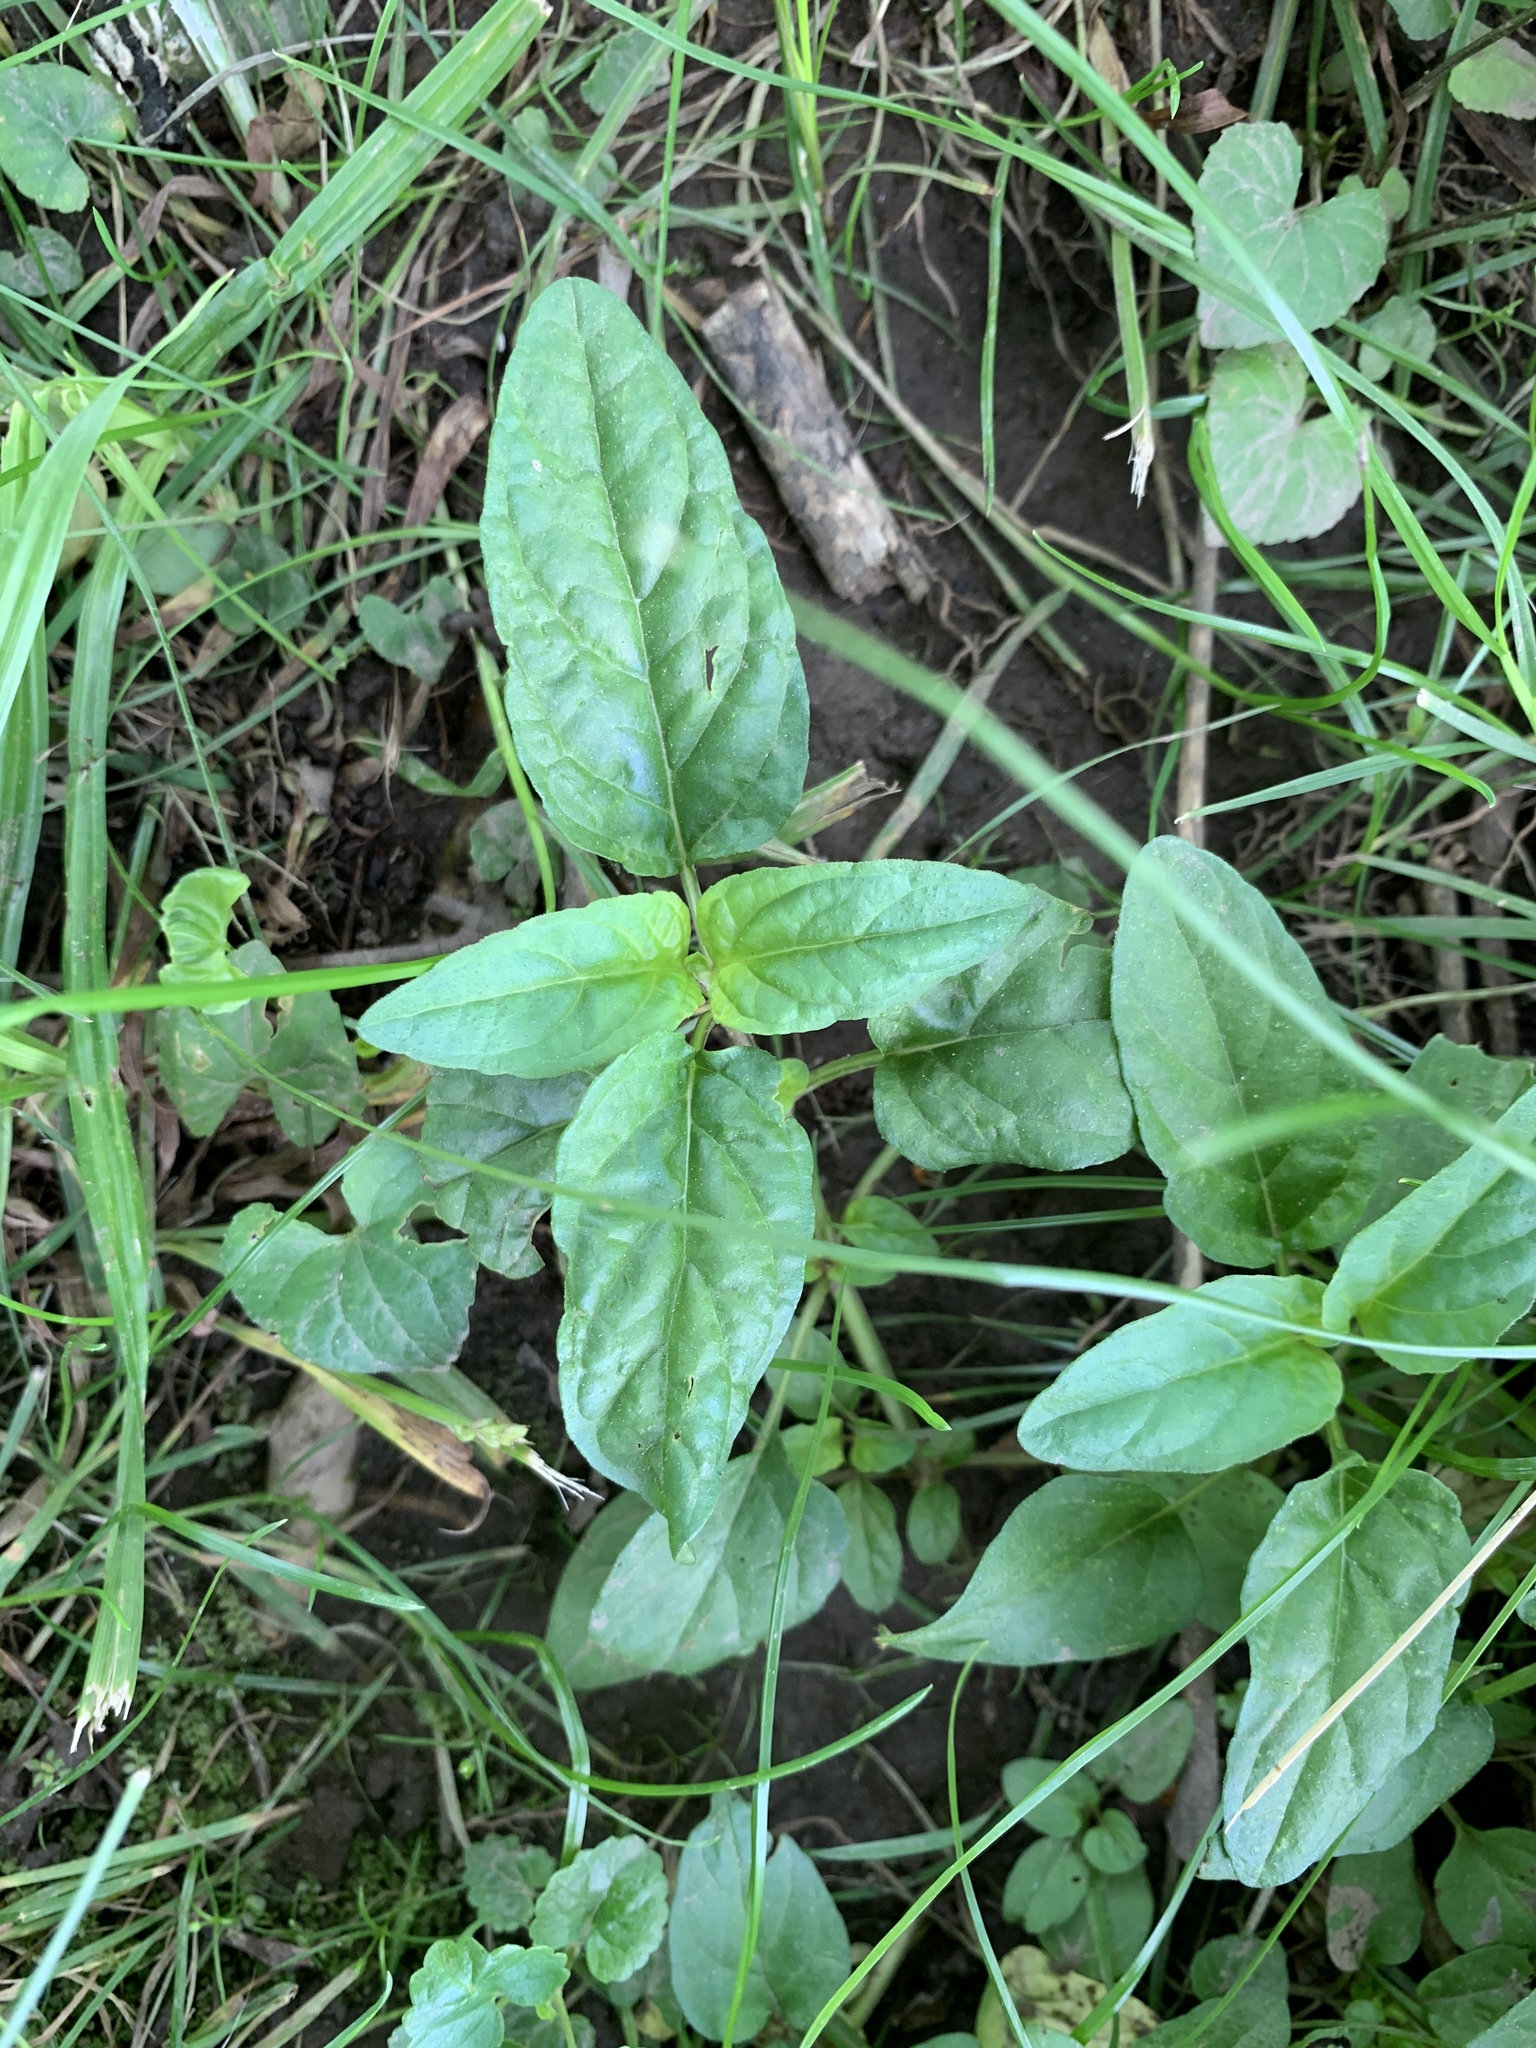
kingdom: Plantae
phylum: Tracheophyta
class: Magnoliopsida
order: Lamiales
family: Lamiaceae
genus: Prunella
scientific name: Prunella vulgaris
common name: Heal-all
